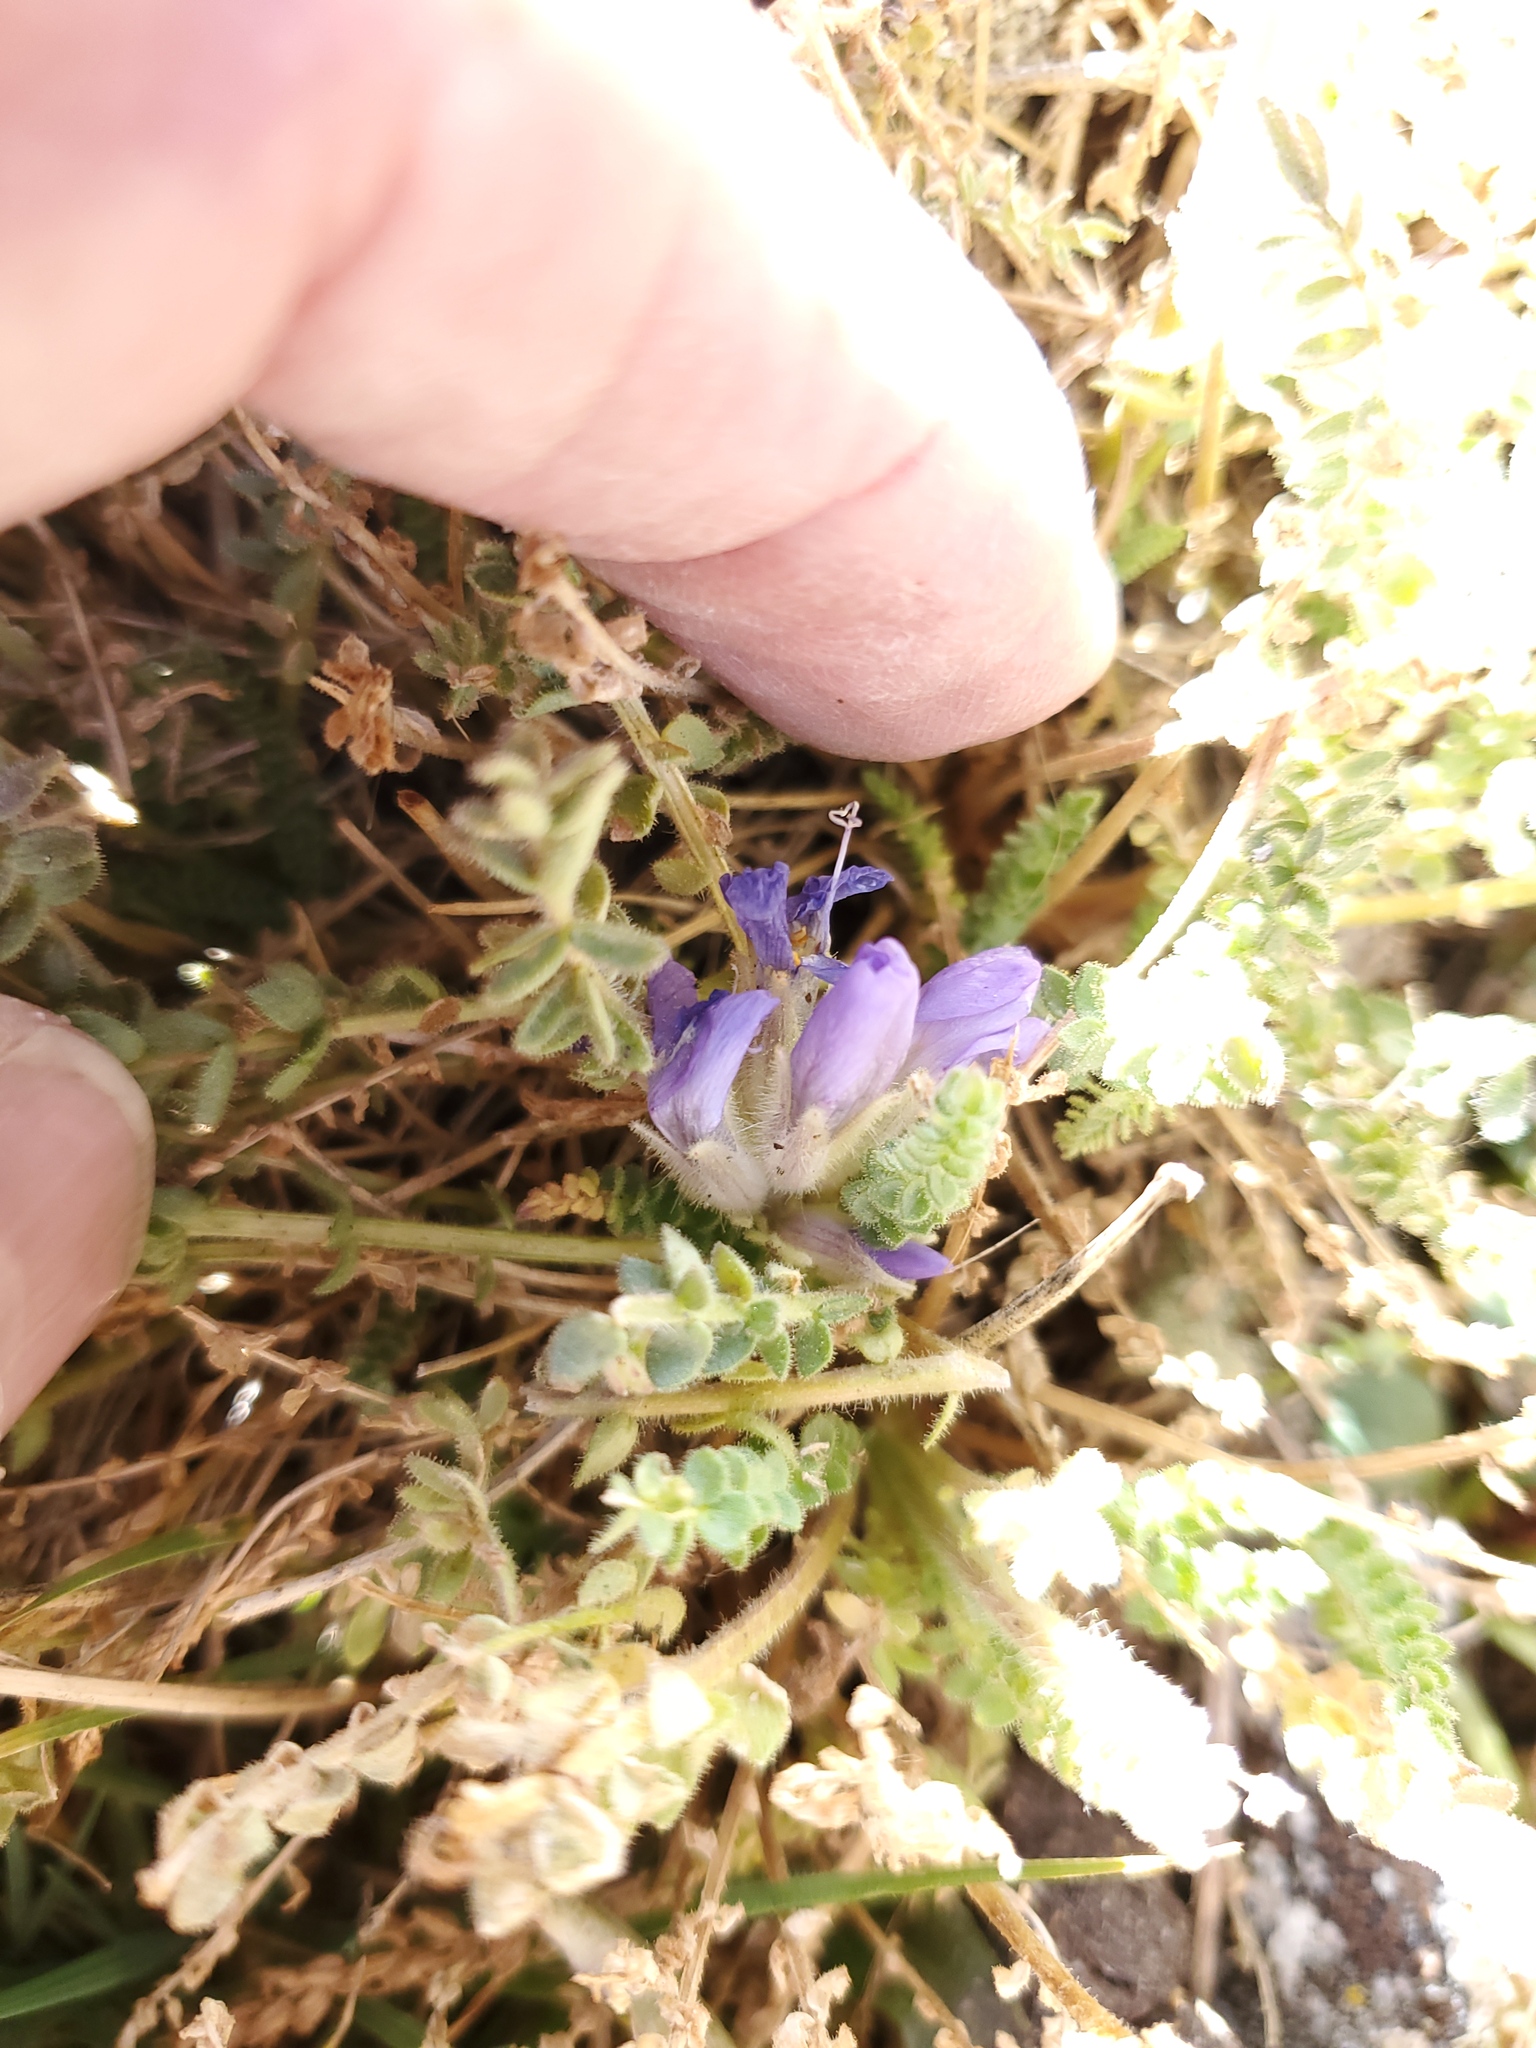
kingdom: Plantae
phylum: Tracheophyta
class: Magnoliopsida
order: Ericales
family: Polemoniaceae
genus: Polemonium
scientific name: Polemonium viscosum
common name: Skunk jacob's-ladder
